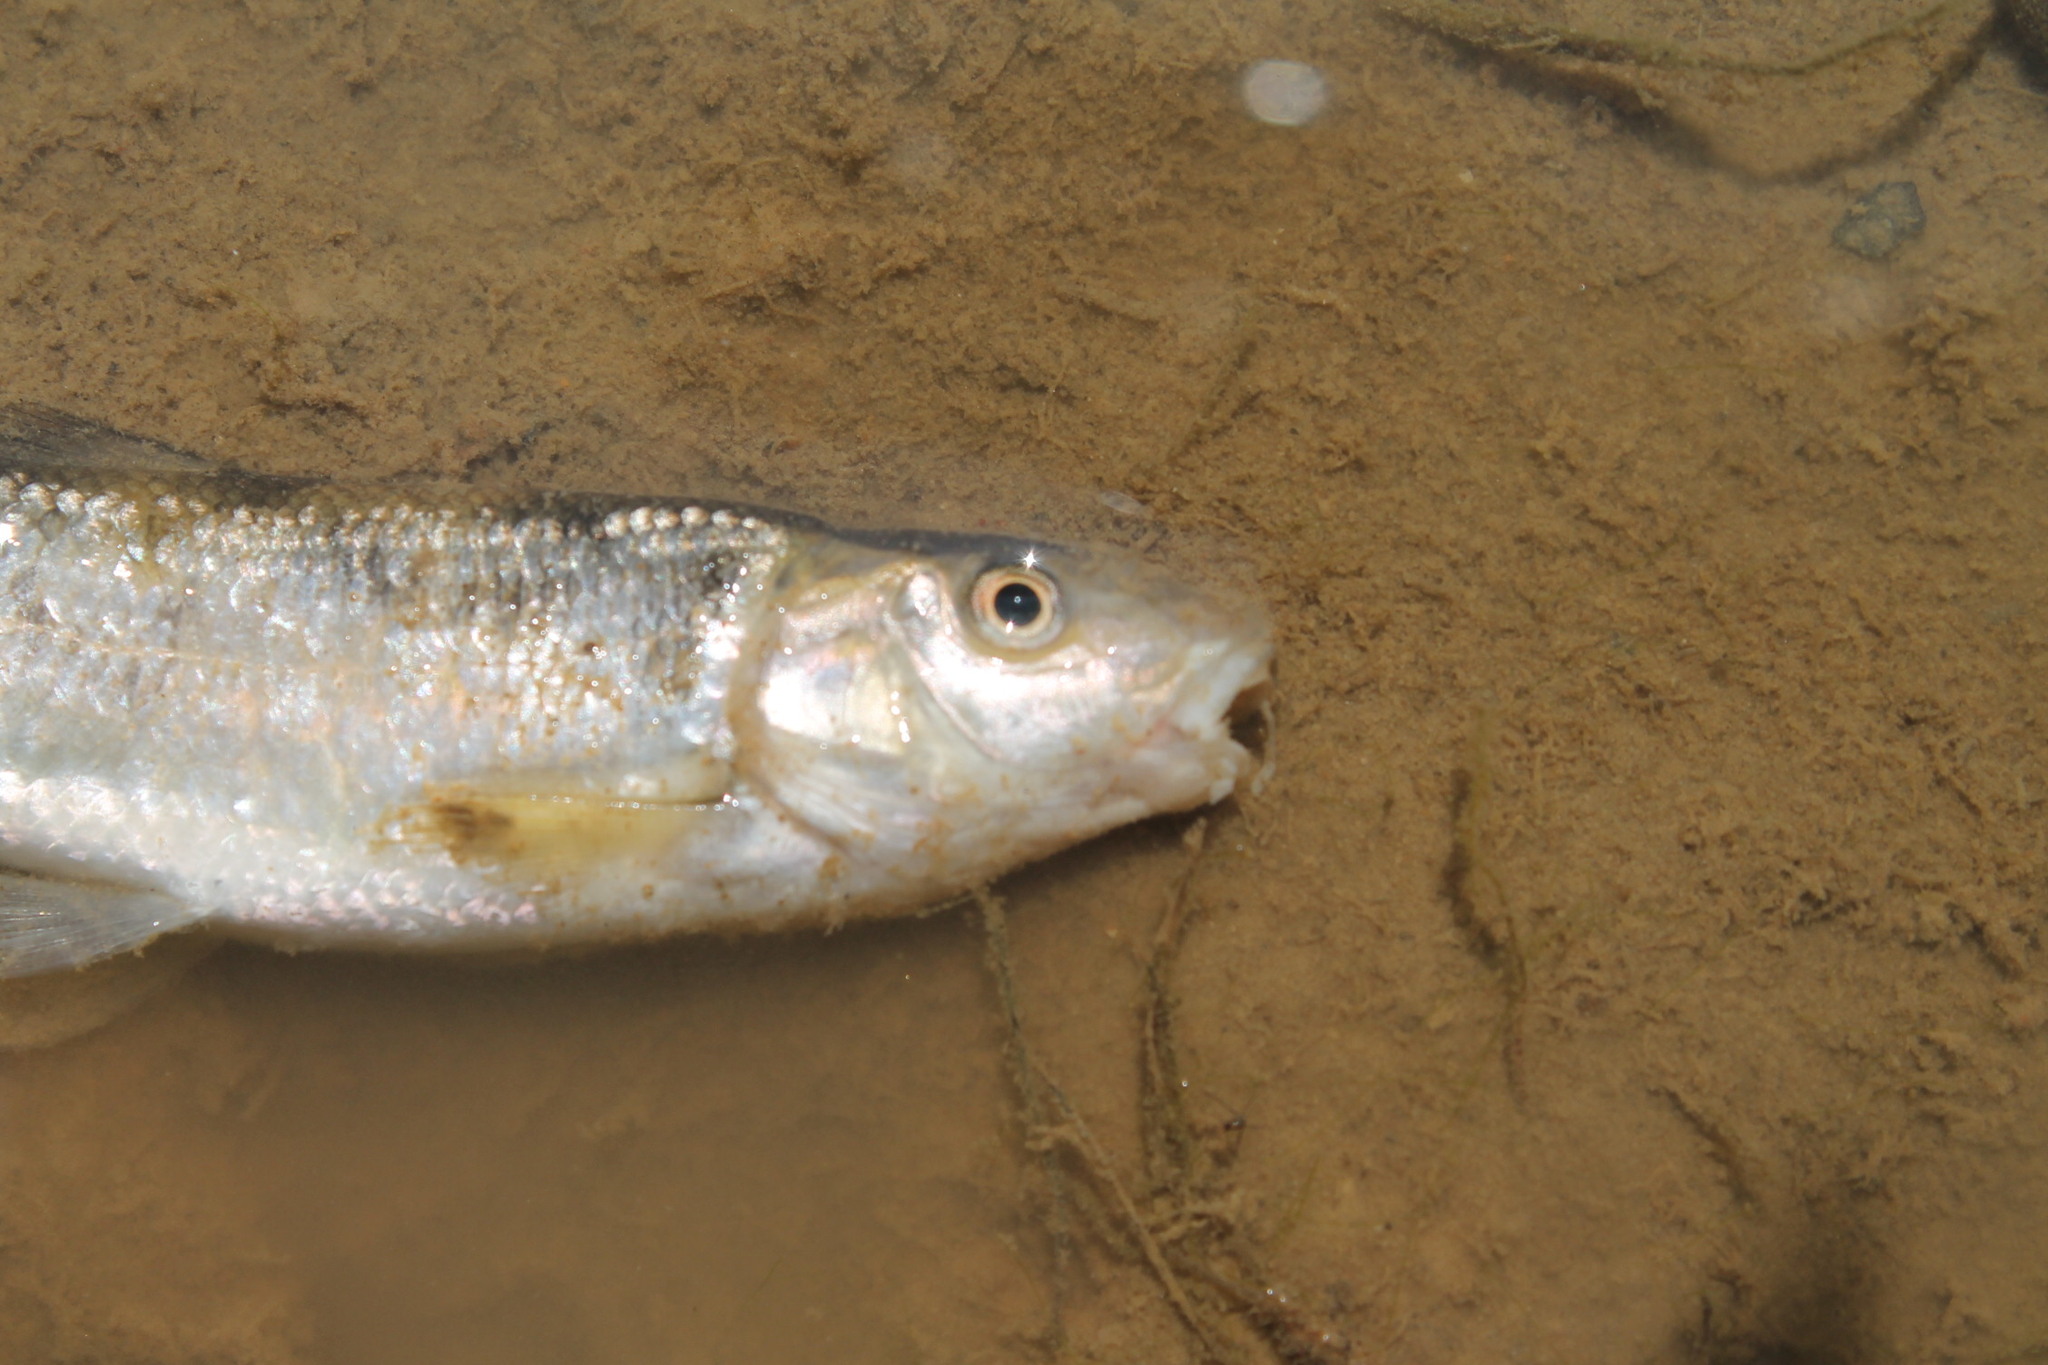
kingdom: Animalia
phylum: Chordata
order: Cypriniformes
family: Cyprinidae
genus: Campostoma
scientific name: Campostoma anomalum
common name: Central stoneroller
